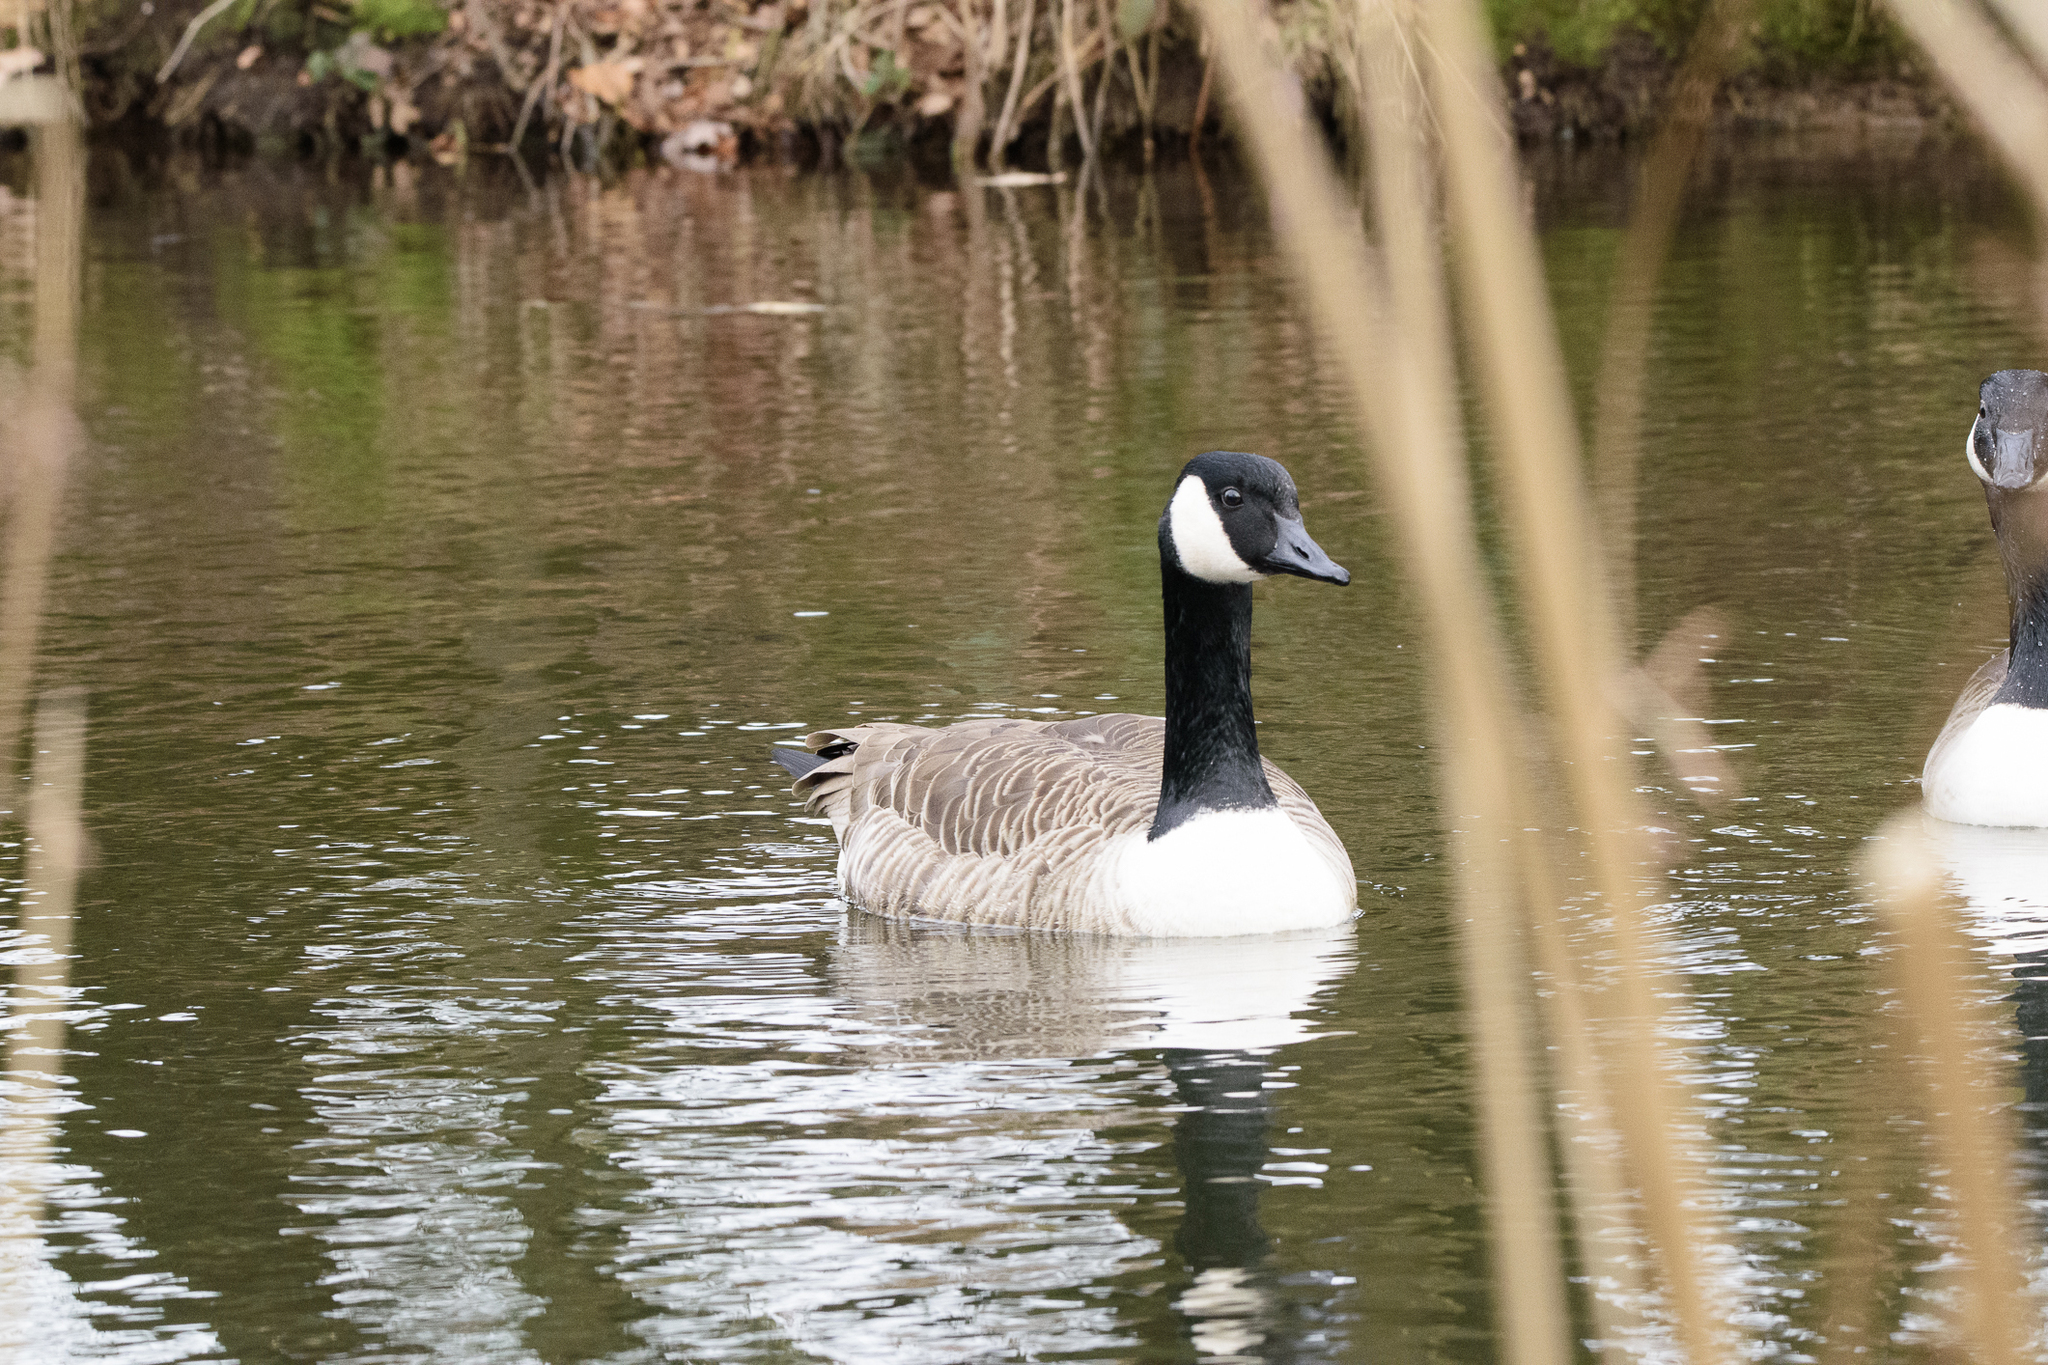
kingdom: Animalia
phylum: Chordata
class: Aves
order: Anseriformes
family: Anatidae
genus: Branta
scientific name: Branta canadensis
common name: Canada goose
